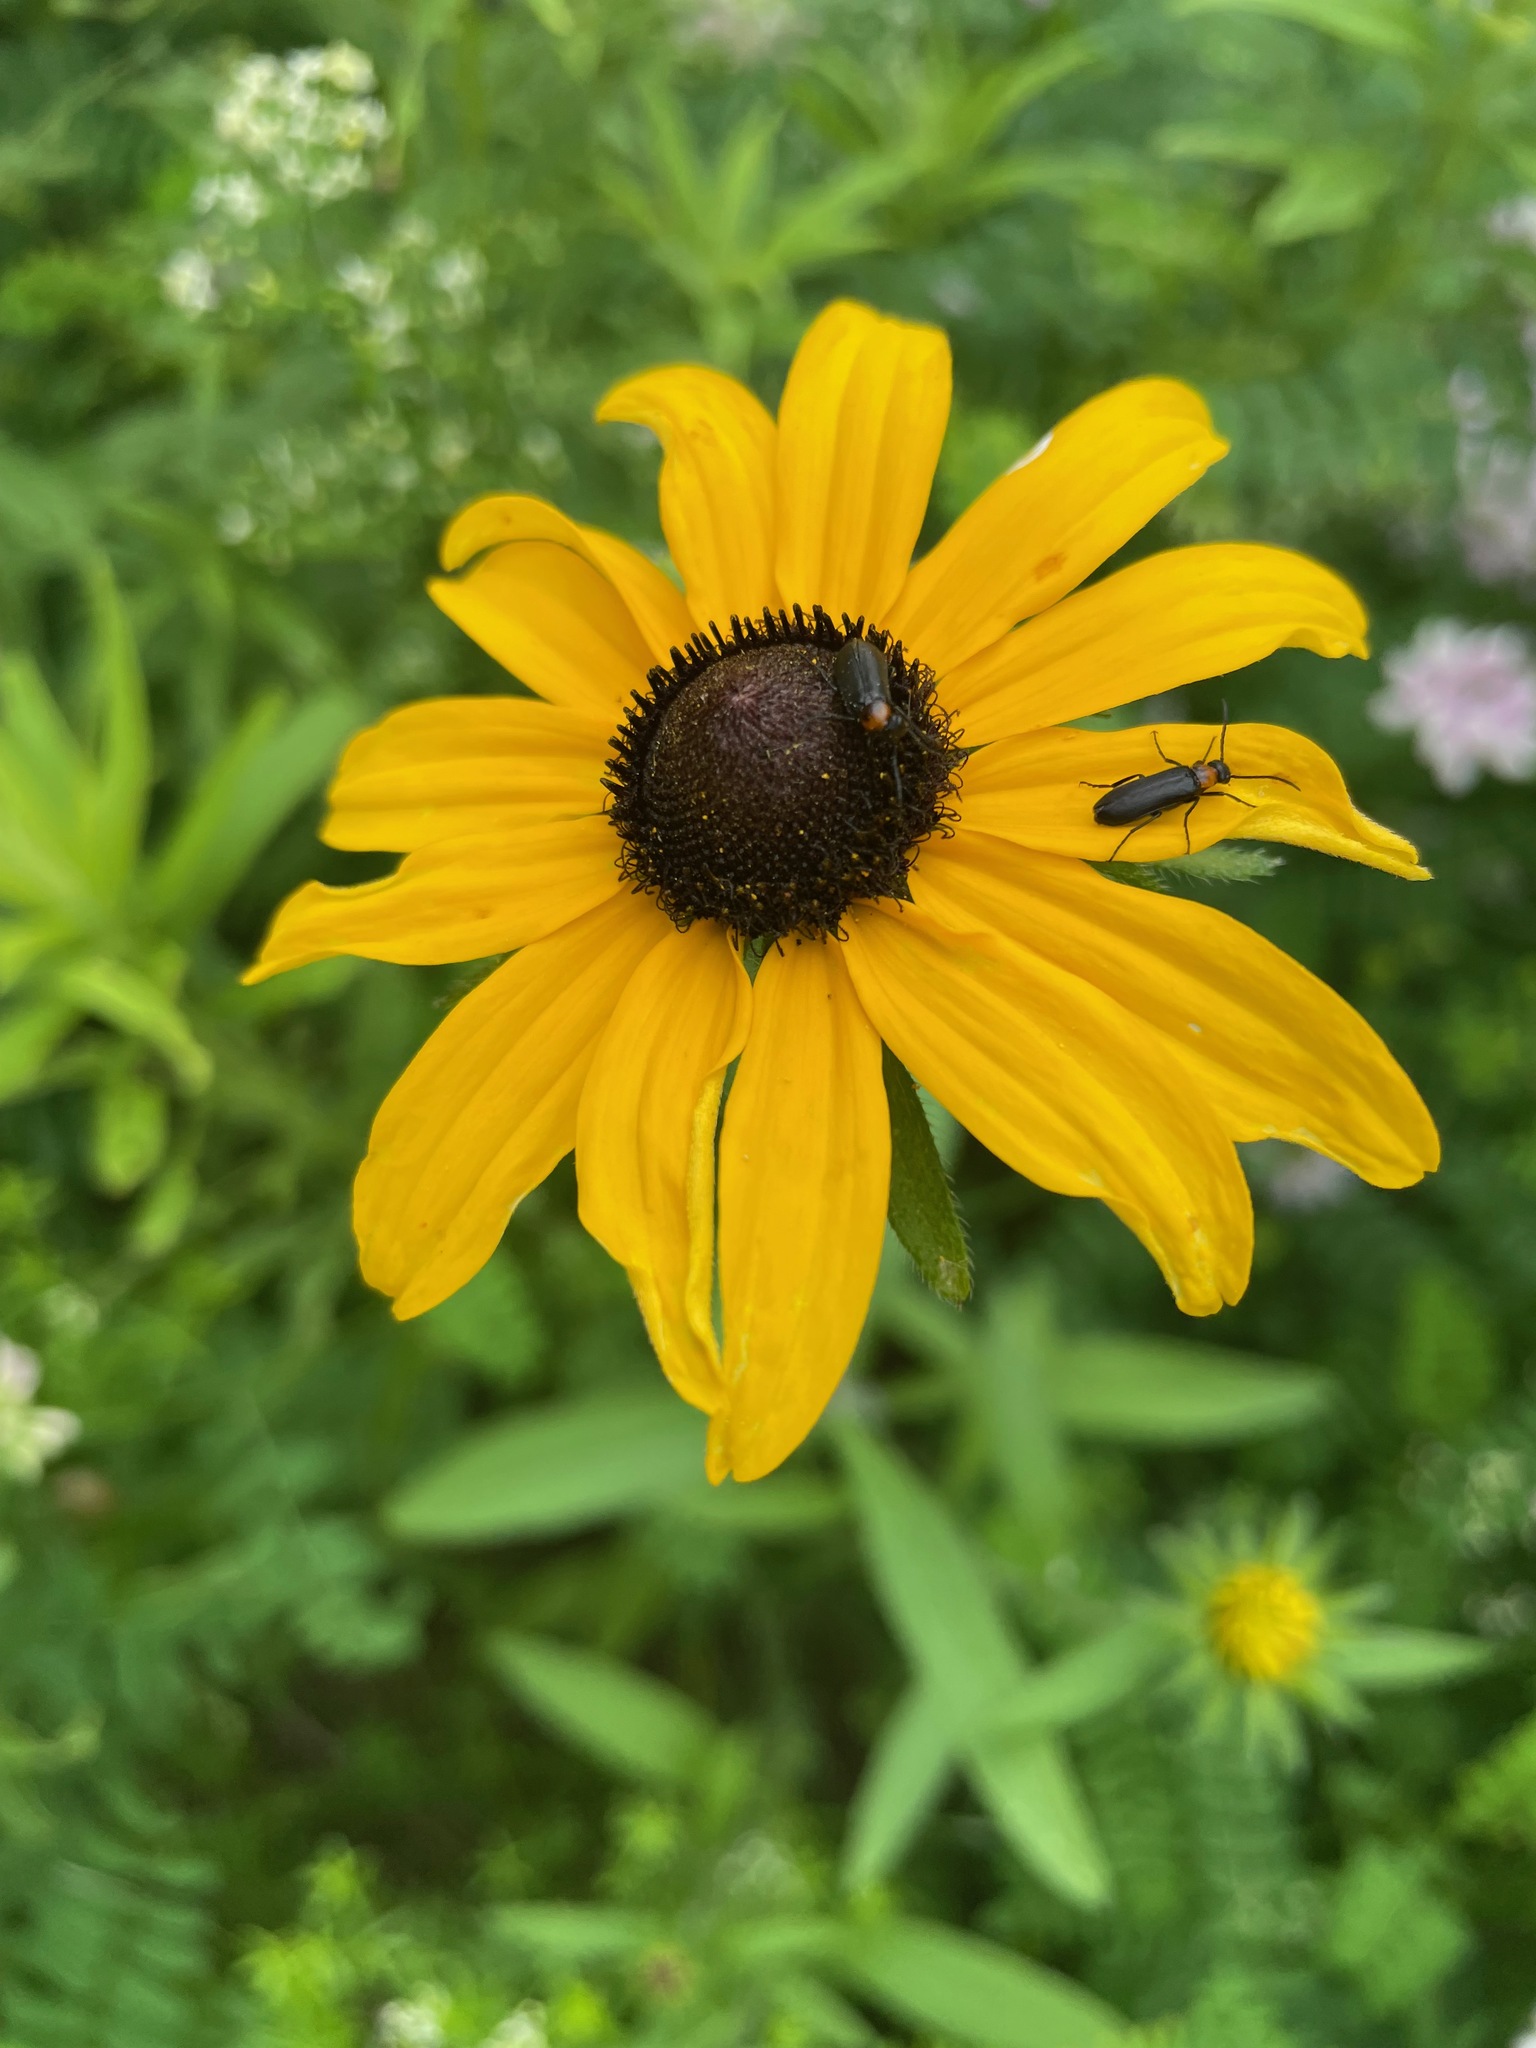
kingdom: Plantae
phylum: Tracheophyta
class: Magnoliopsida
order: Asterales
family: Asteraceae
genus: Rudbeckia
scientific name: Rudbeckia hirta
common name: Black-eyed-susan
